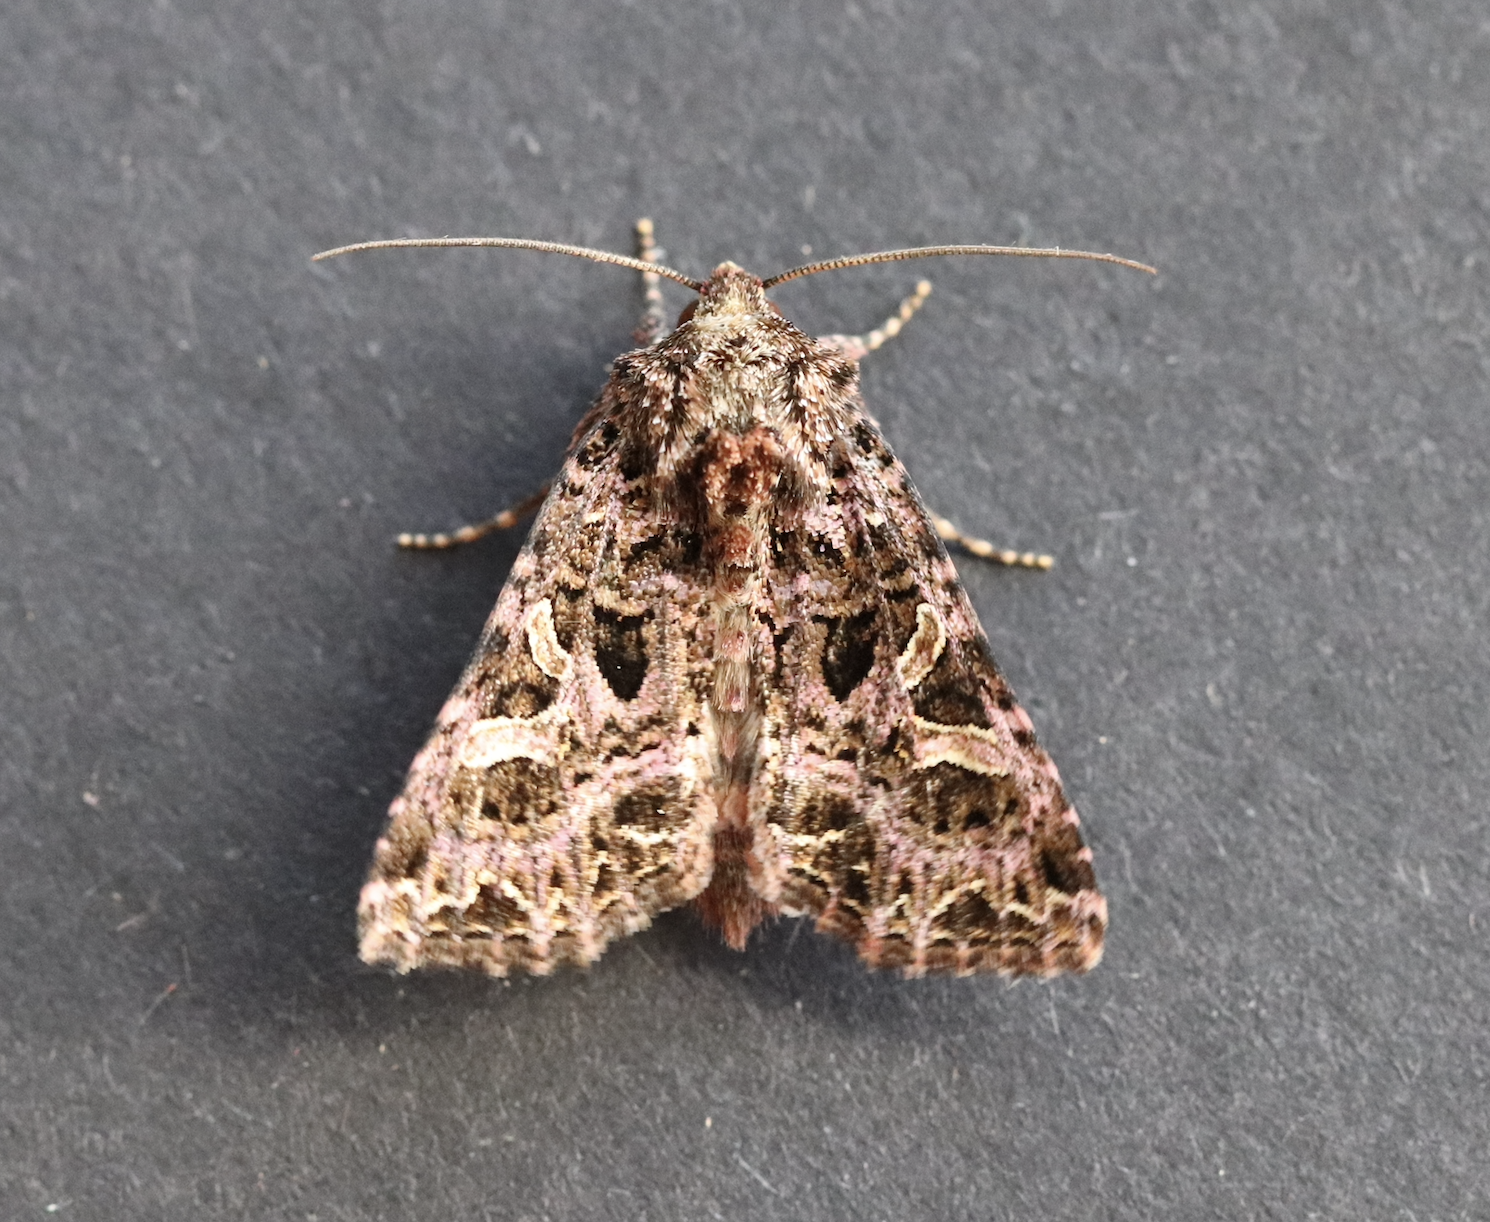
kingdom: Animalia
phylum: Arthropoda
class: Insecta
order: Lepidoptera
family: Noctuidae
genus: Sideridis
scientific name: Sideridis rivularis
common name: Campion
